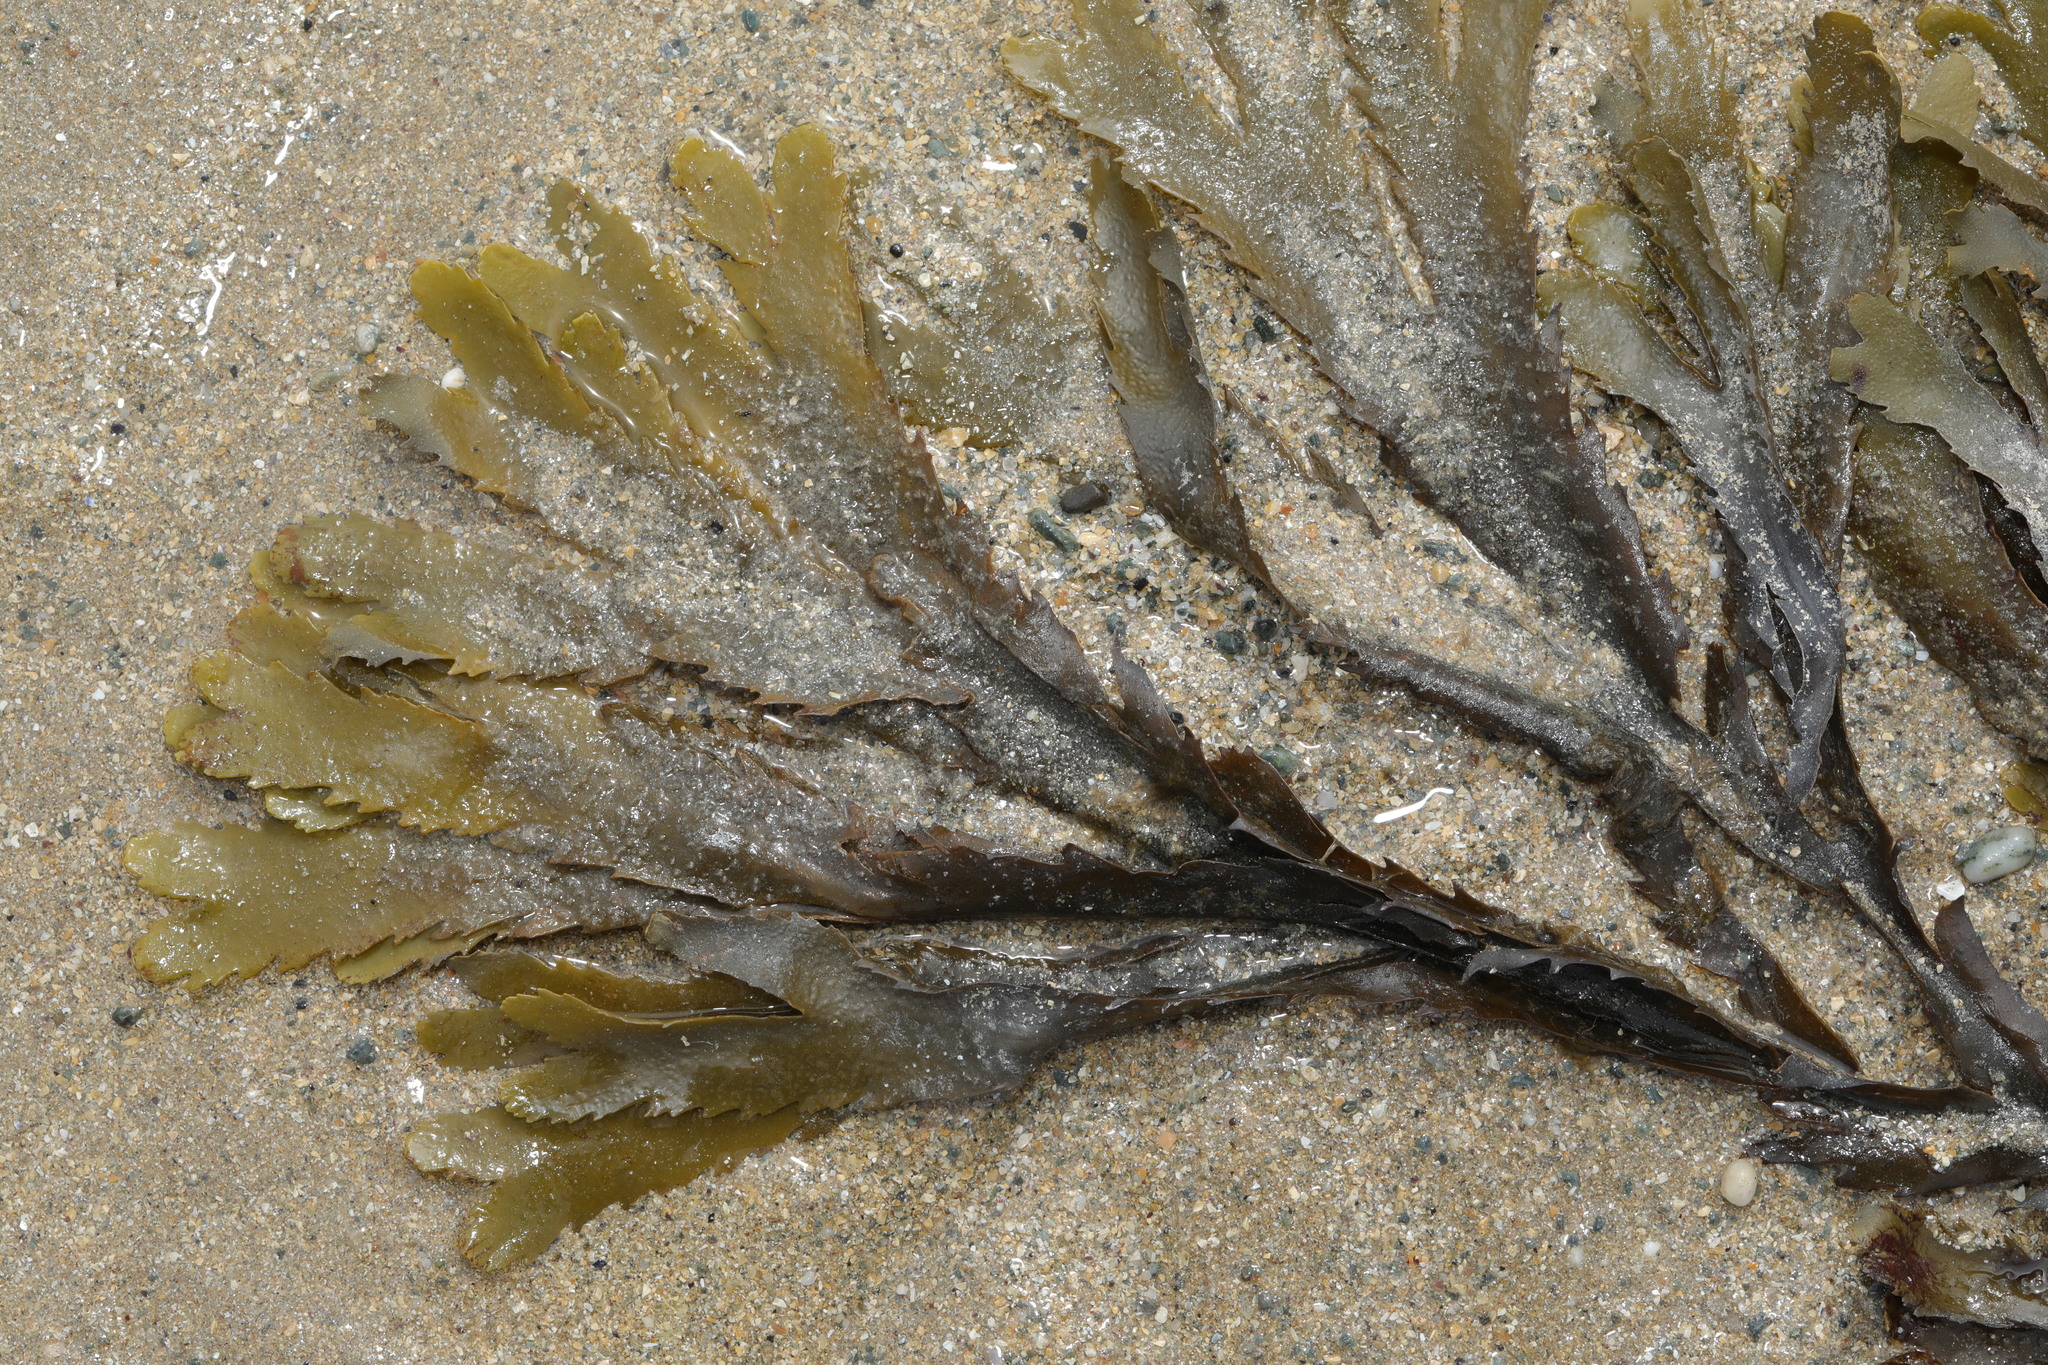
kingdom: Chromista
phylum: Ochrophyta
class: Phaeophyceae
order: Fucales
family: Fucaceae
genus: Fucus
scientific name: Fucus serratus
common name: Toothed wrack
